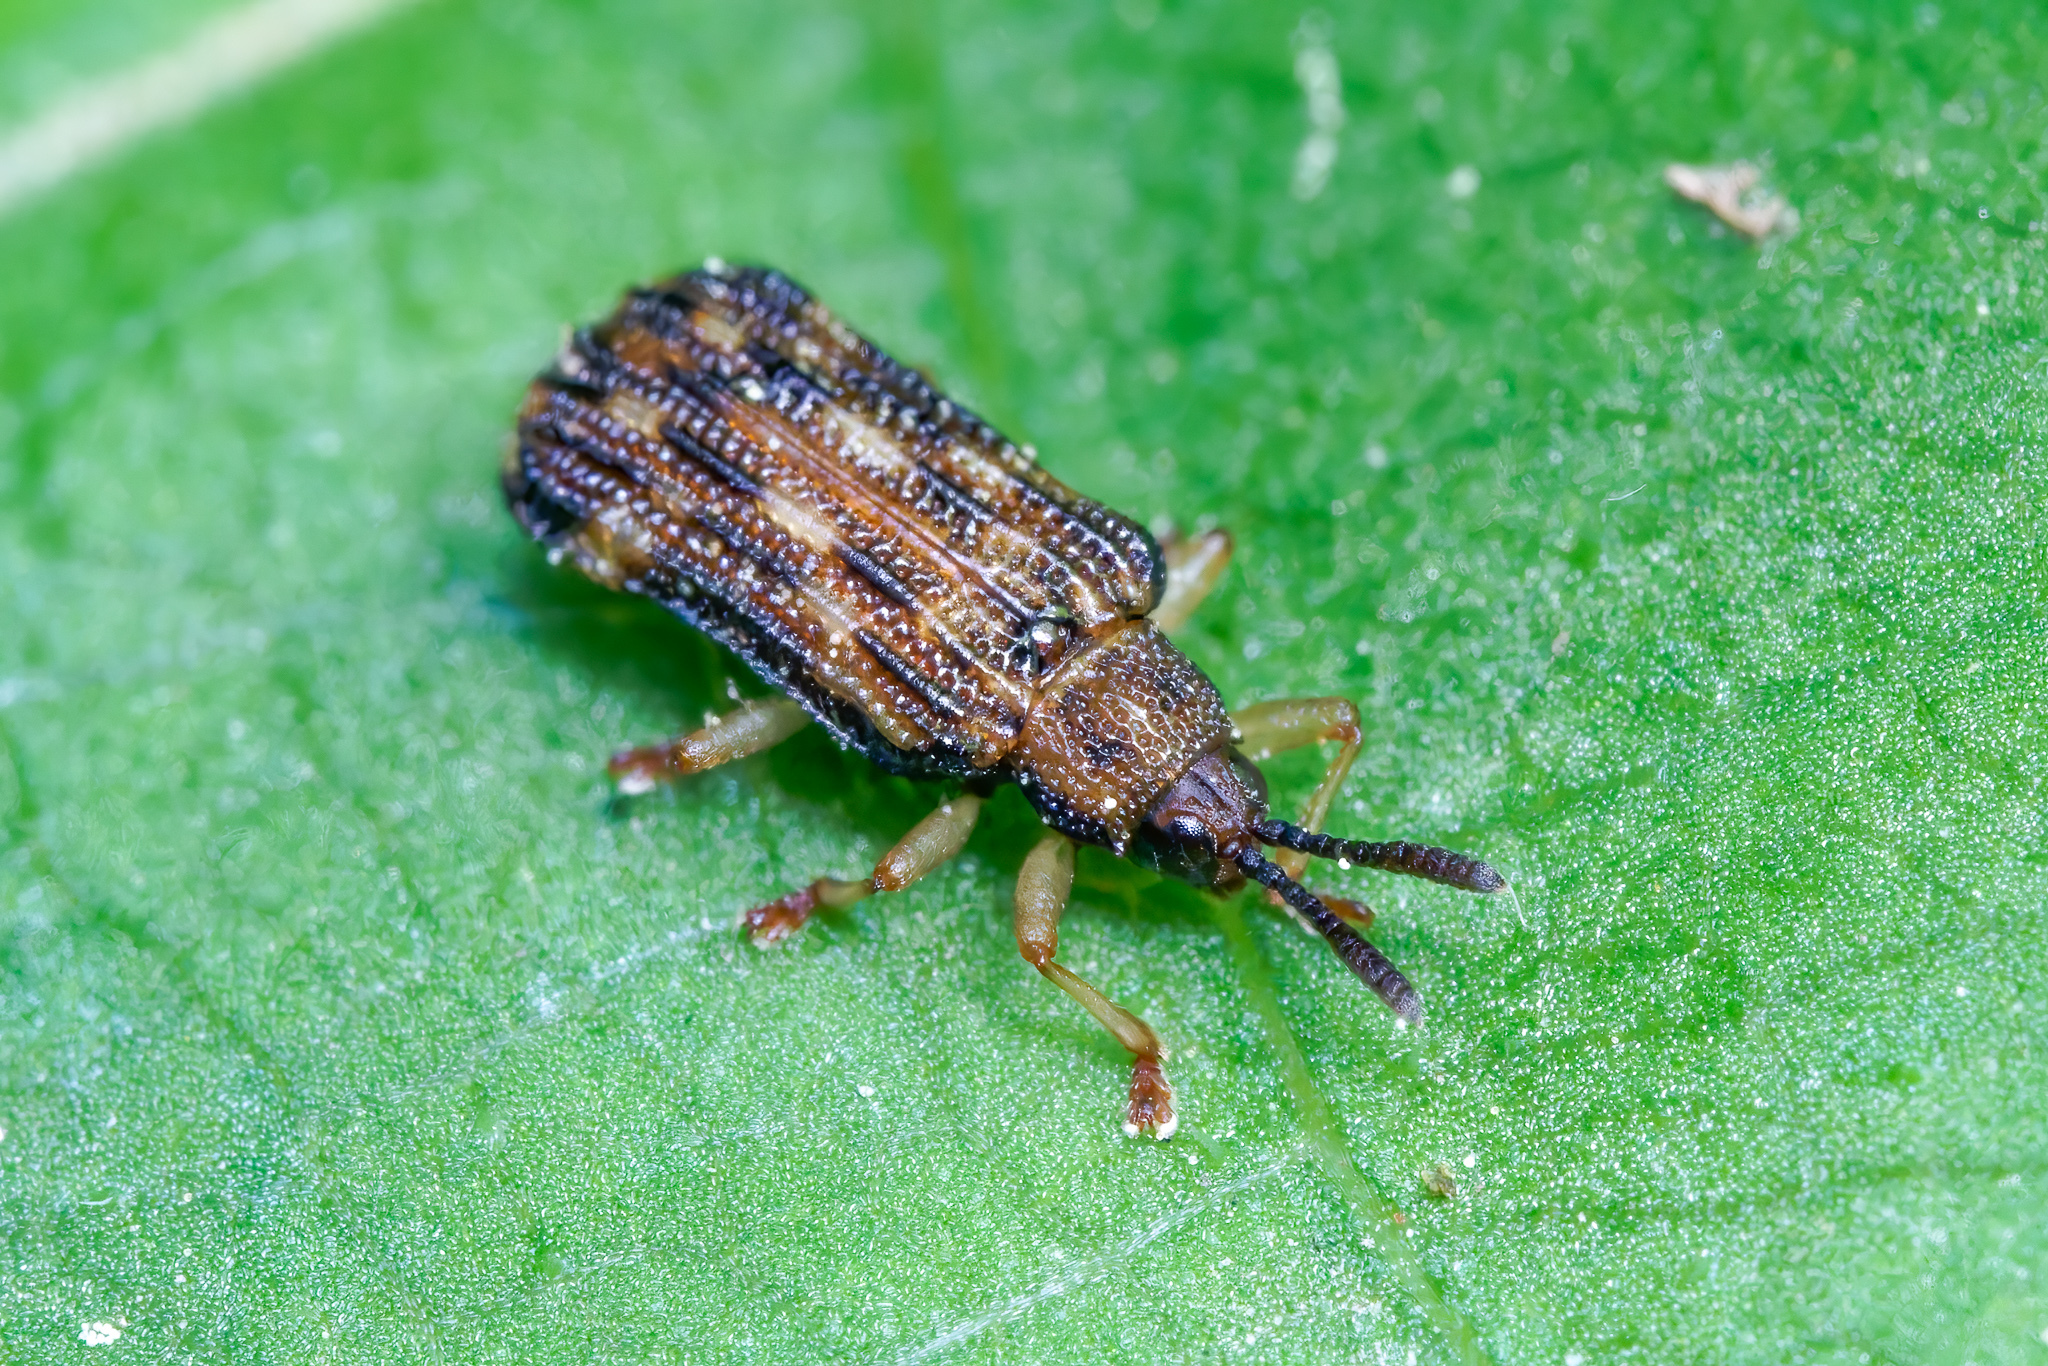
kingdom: Animalia
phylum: Arthropoda
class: Insecta
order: Coleoptera
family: Chrysomelidae
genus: Sumitrosis
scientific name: Sumitrosis inaequalis
